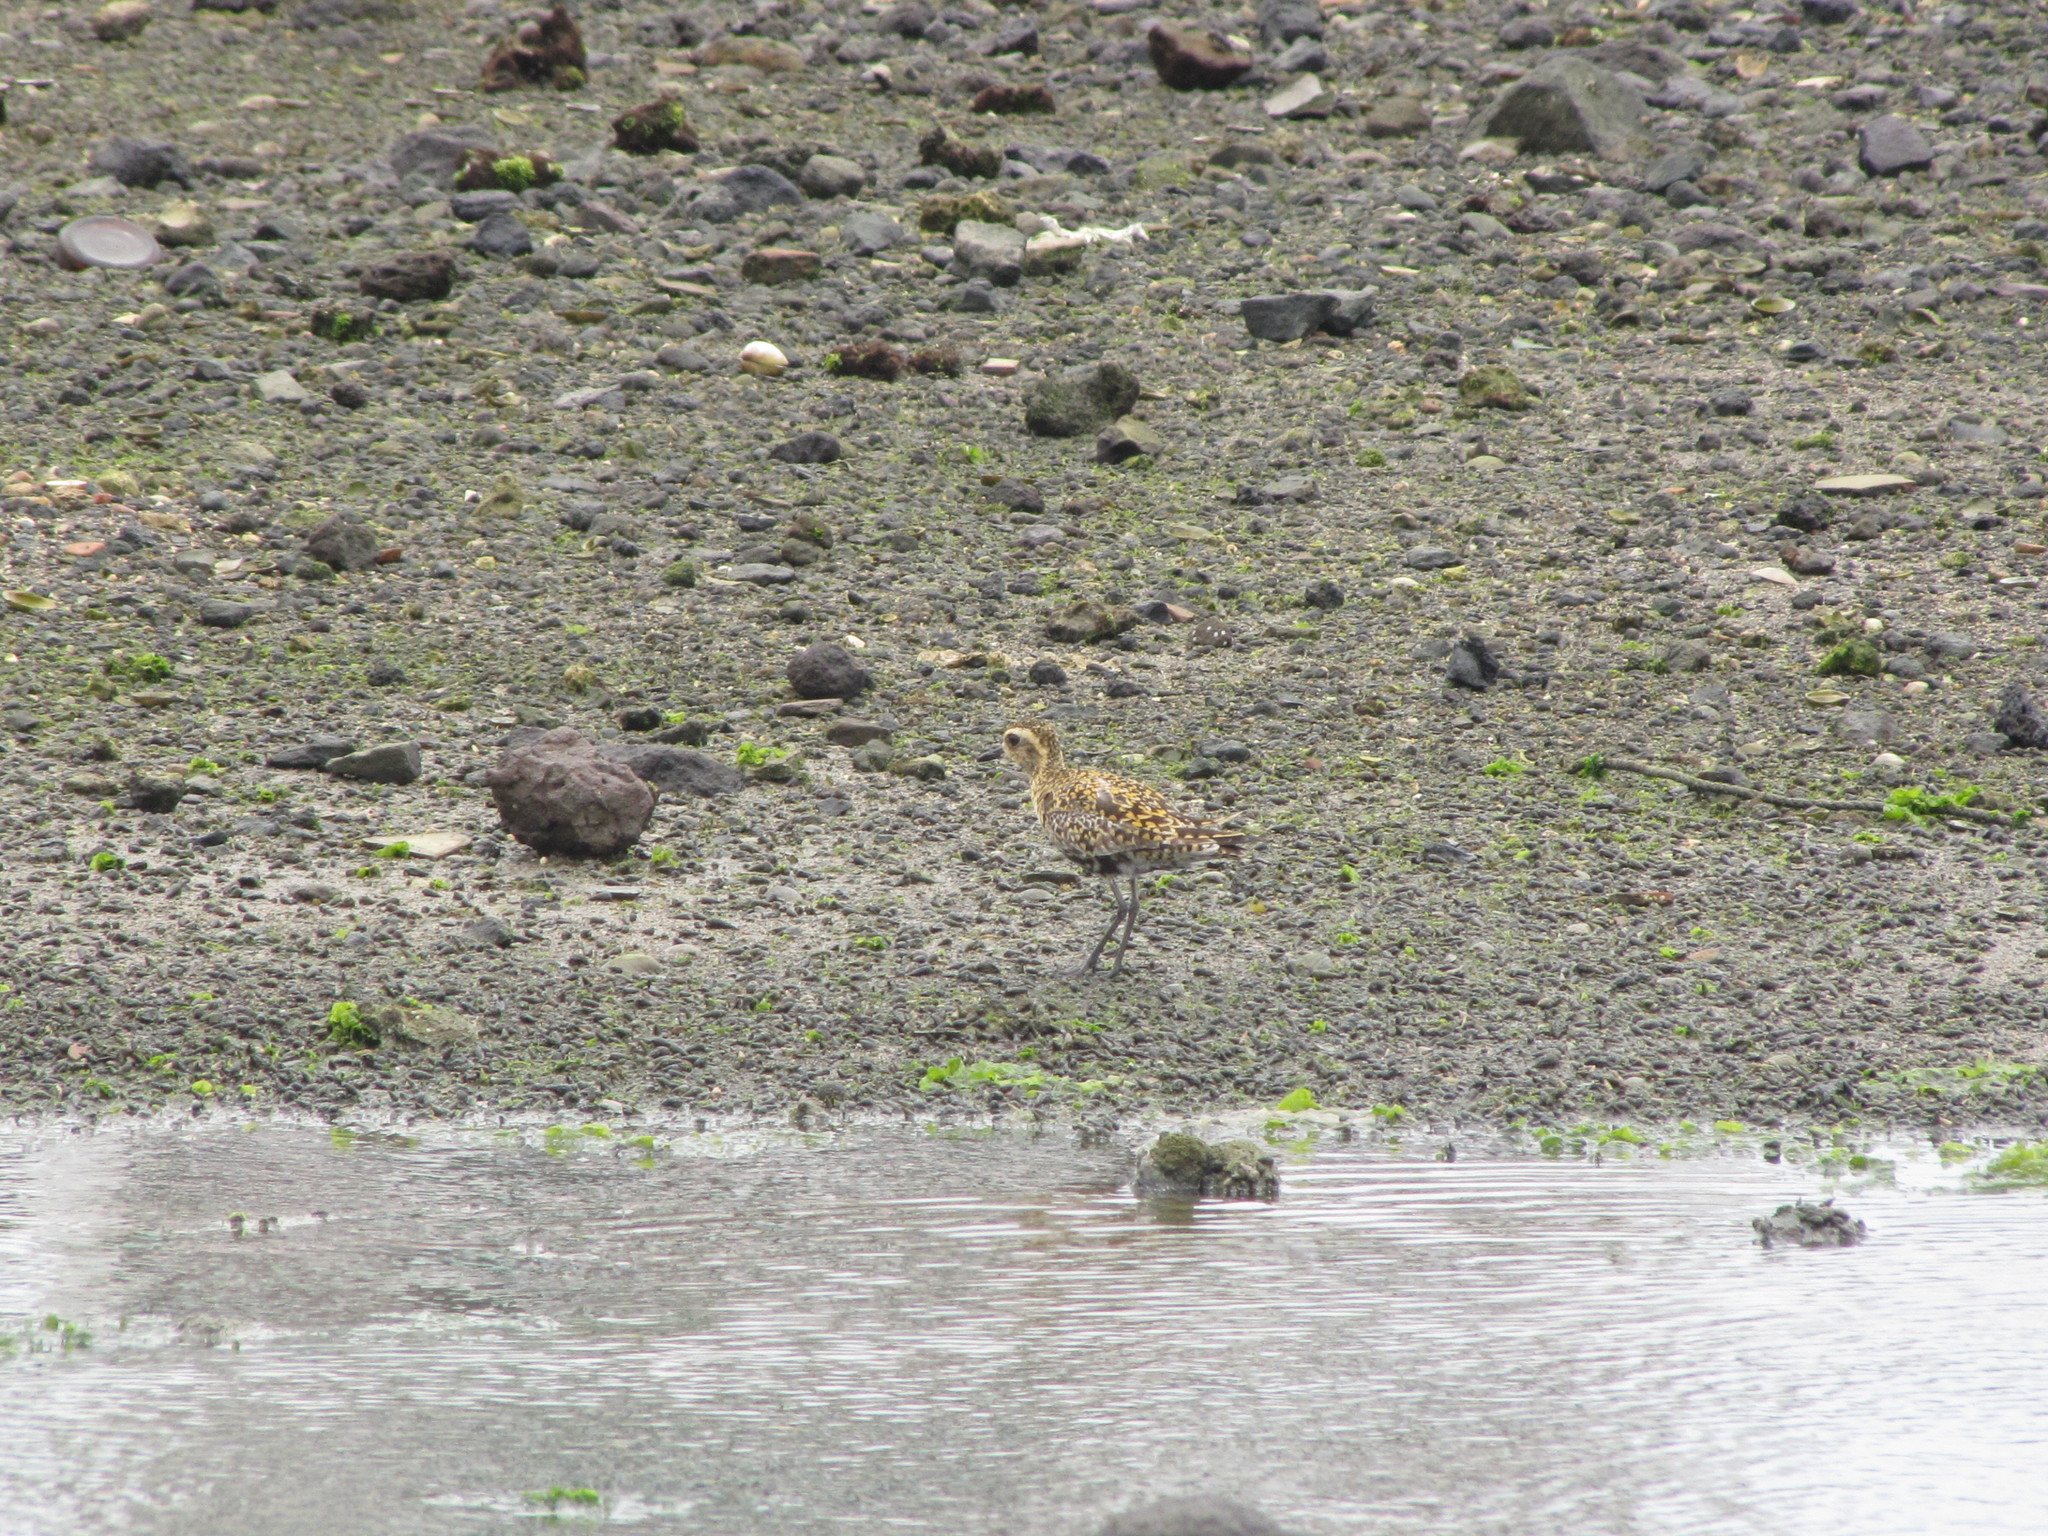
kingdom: Animalia
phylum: Chordata
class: Aves
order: Charadriiformes
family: Charadriidae
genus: Pluvialis
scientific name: Pluvialis fulva
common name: Pacific golden plover
